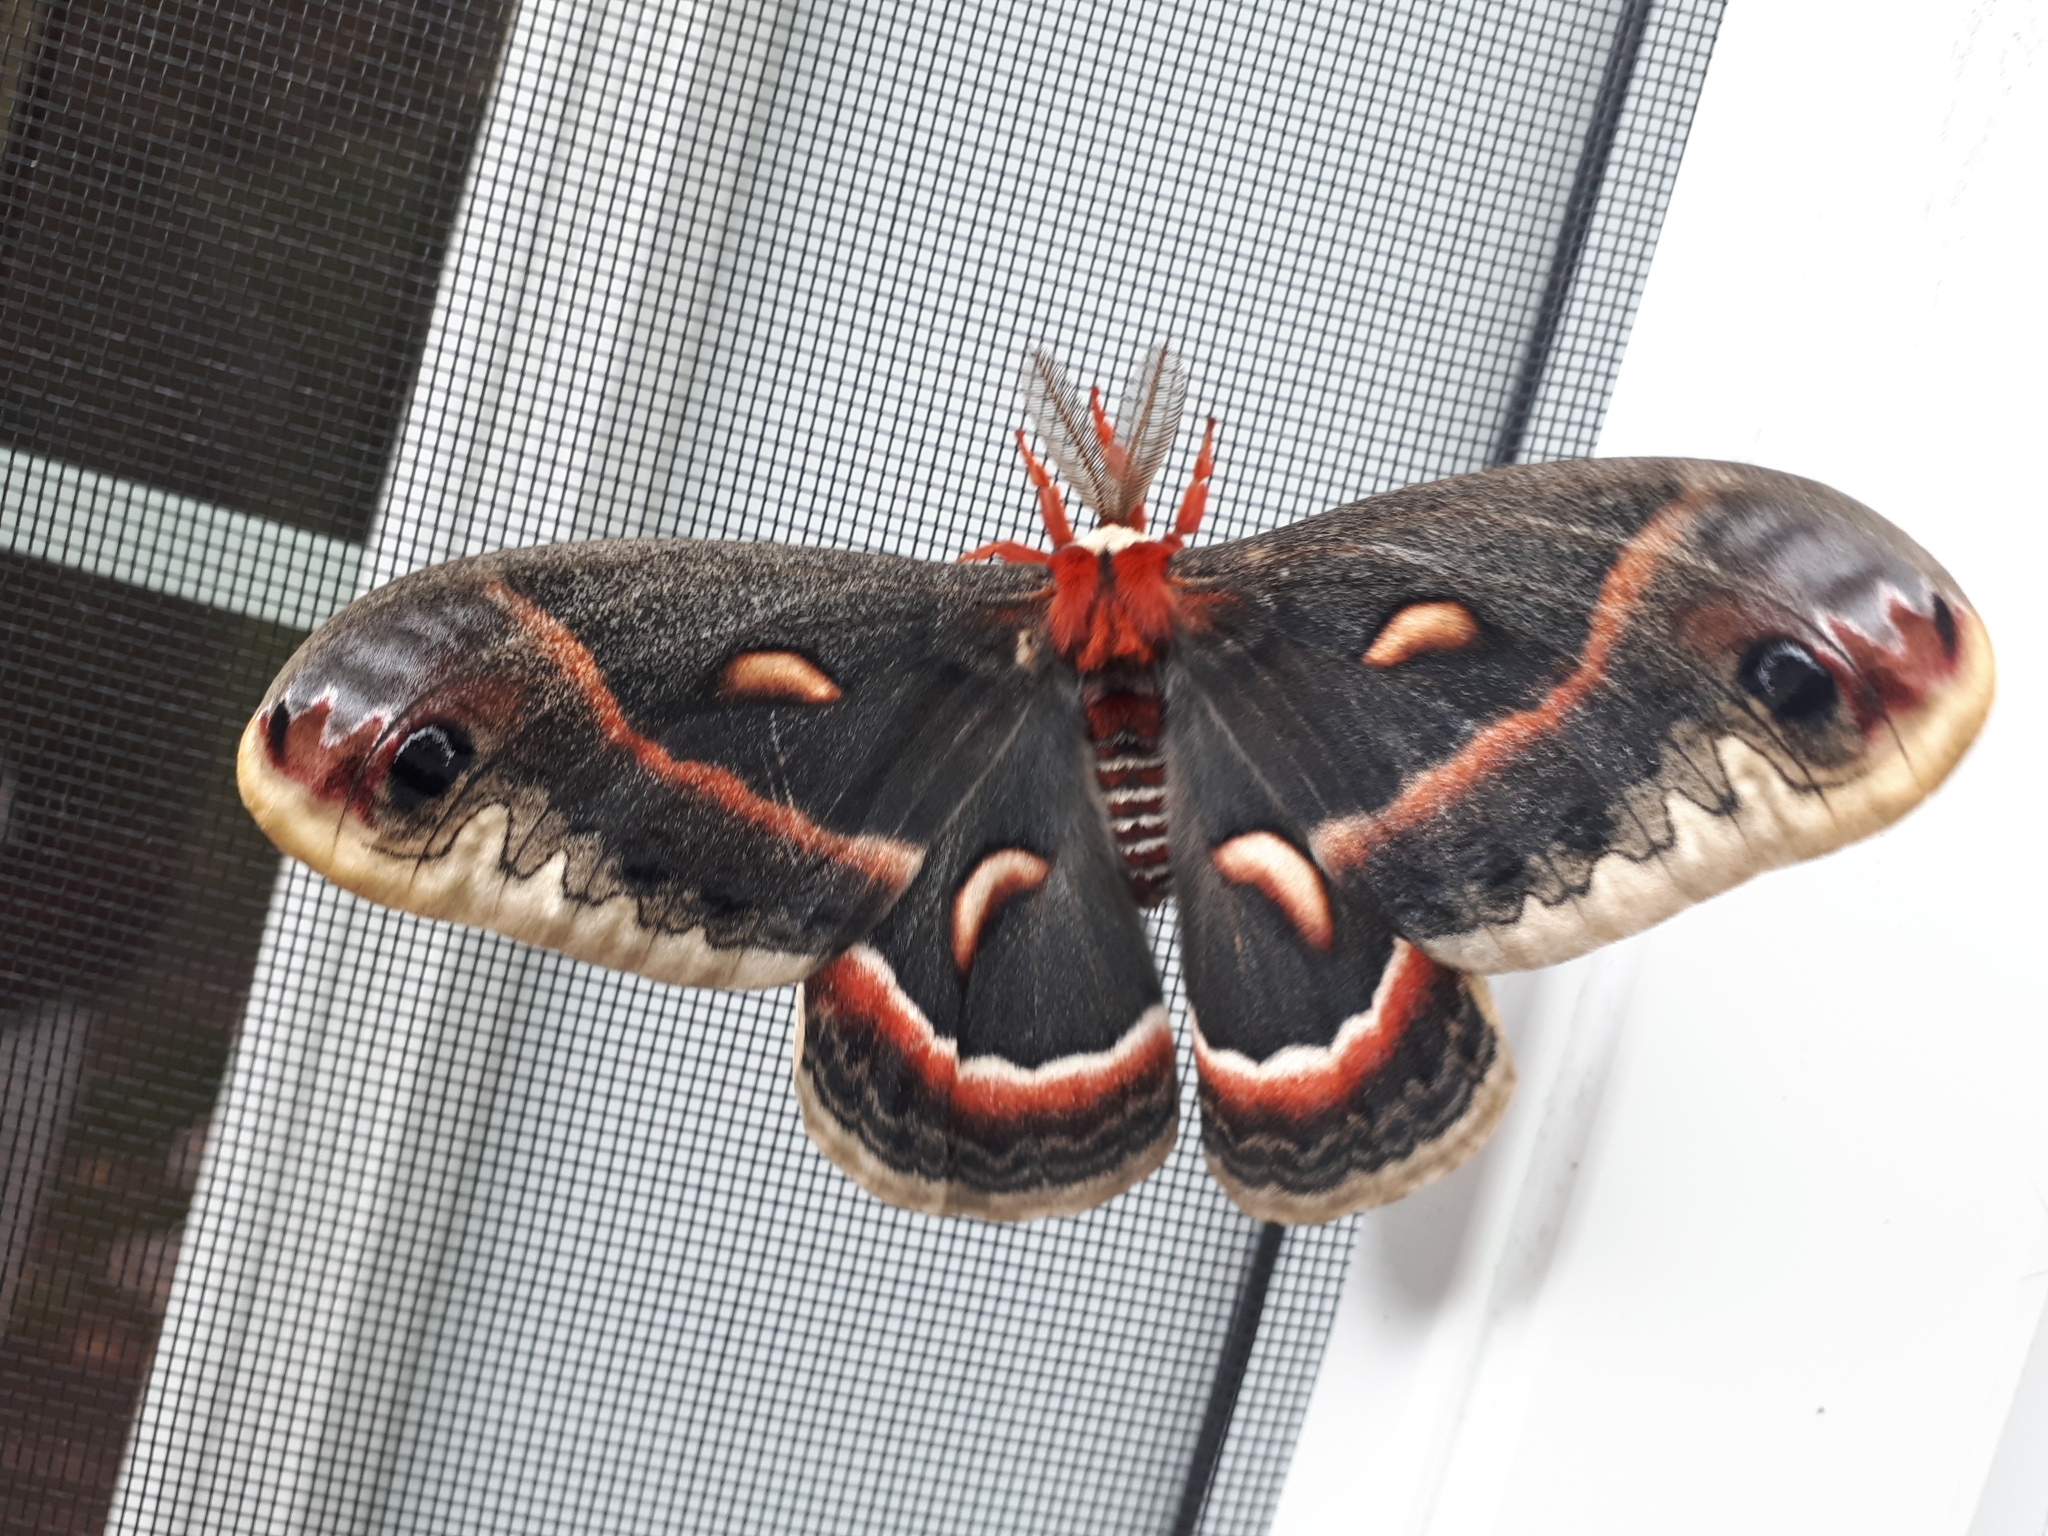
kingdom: Animalia
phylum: Arthropoda
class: Insecta
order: Lepidoptera
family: Saturniidae
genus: Hyalophora
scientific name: Hyalophora cecropia
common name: Cecropia silkmoth
